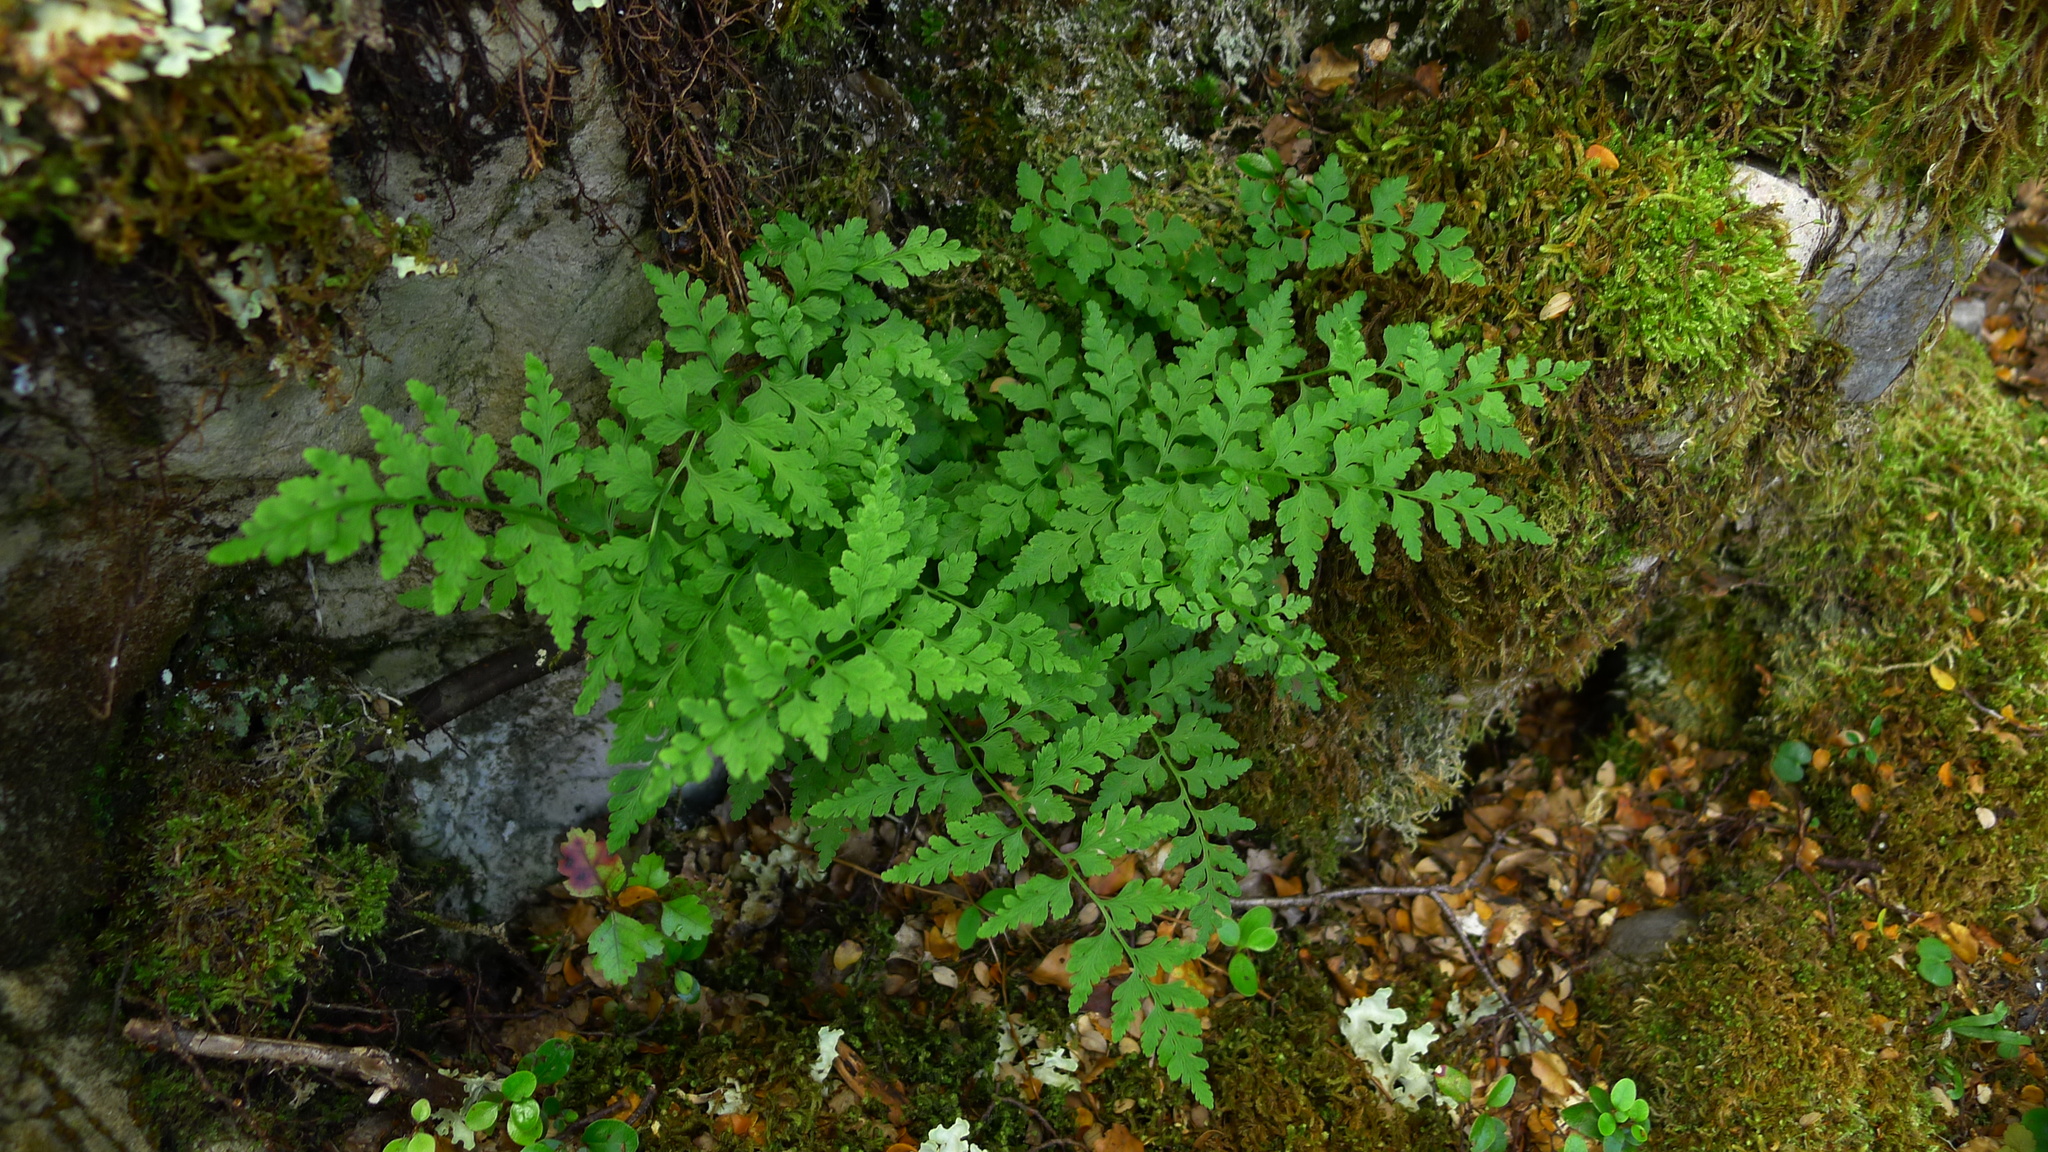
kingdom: Plantae
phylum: Tracheophyta
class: Polypodiopsida
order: Polypodiales
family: Cystopteridaceae
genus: Cystopteris
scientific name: Cystopteris tasmanica
